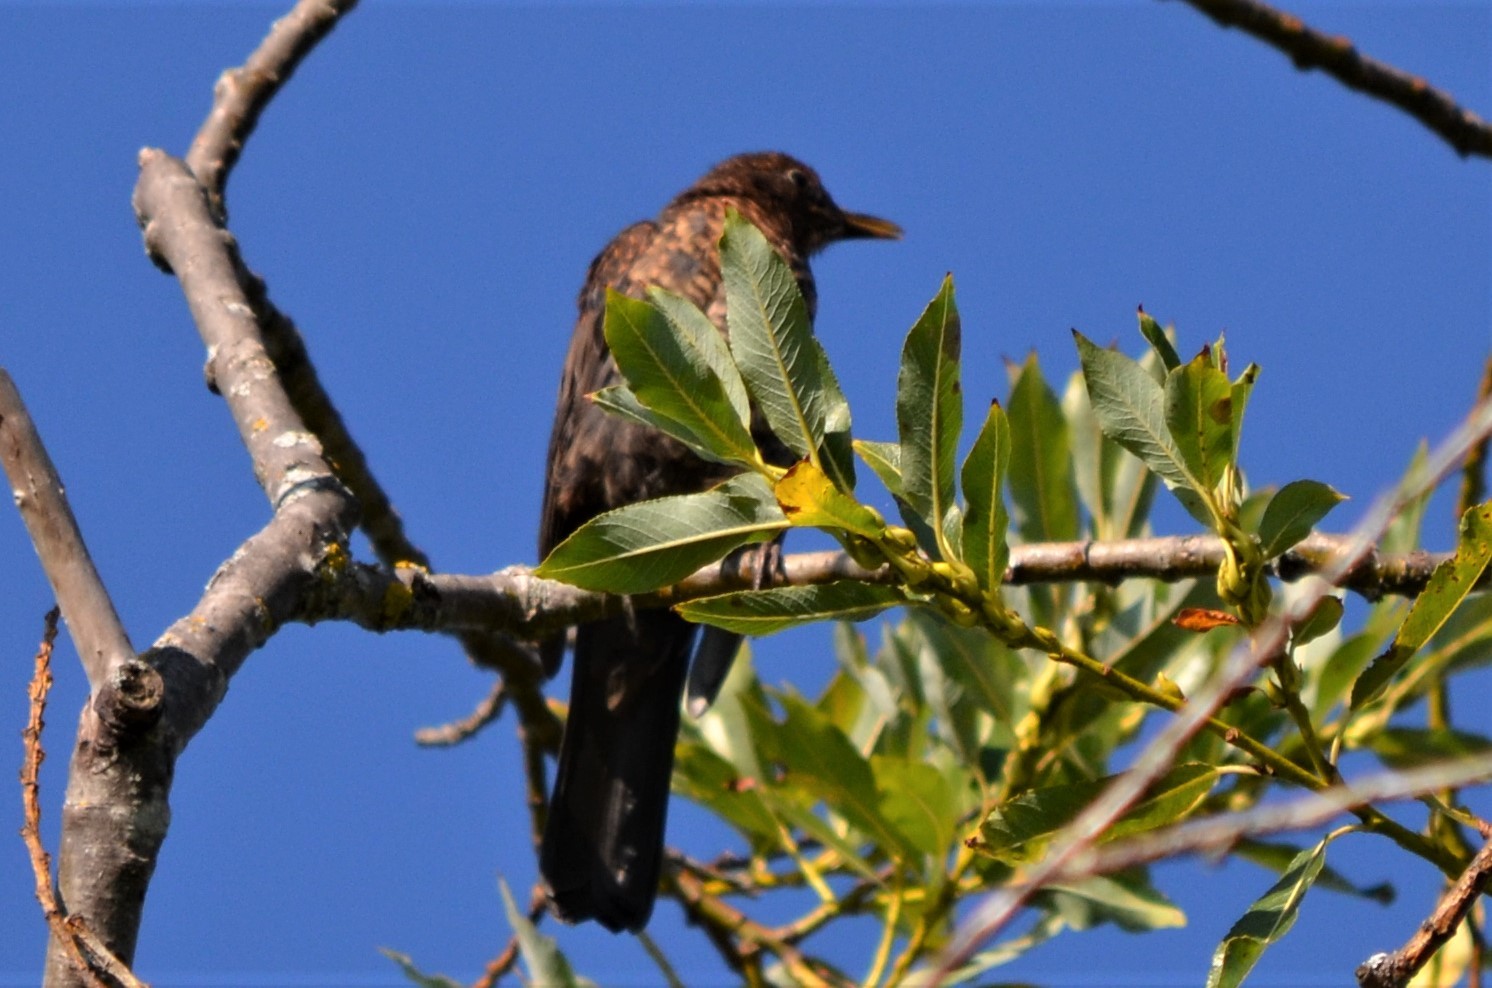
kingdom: Animalia
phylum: Chordata
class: Aves
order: Passeriformes
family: Turdidae
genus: Turdus
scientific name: Turdus merula
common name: Common blackbird
